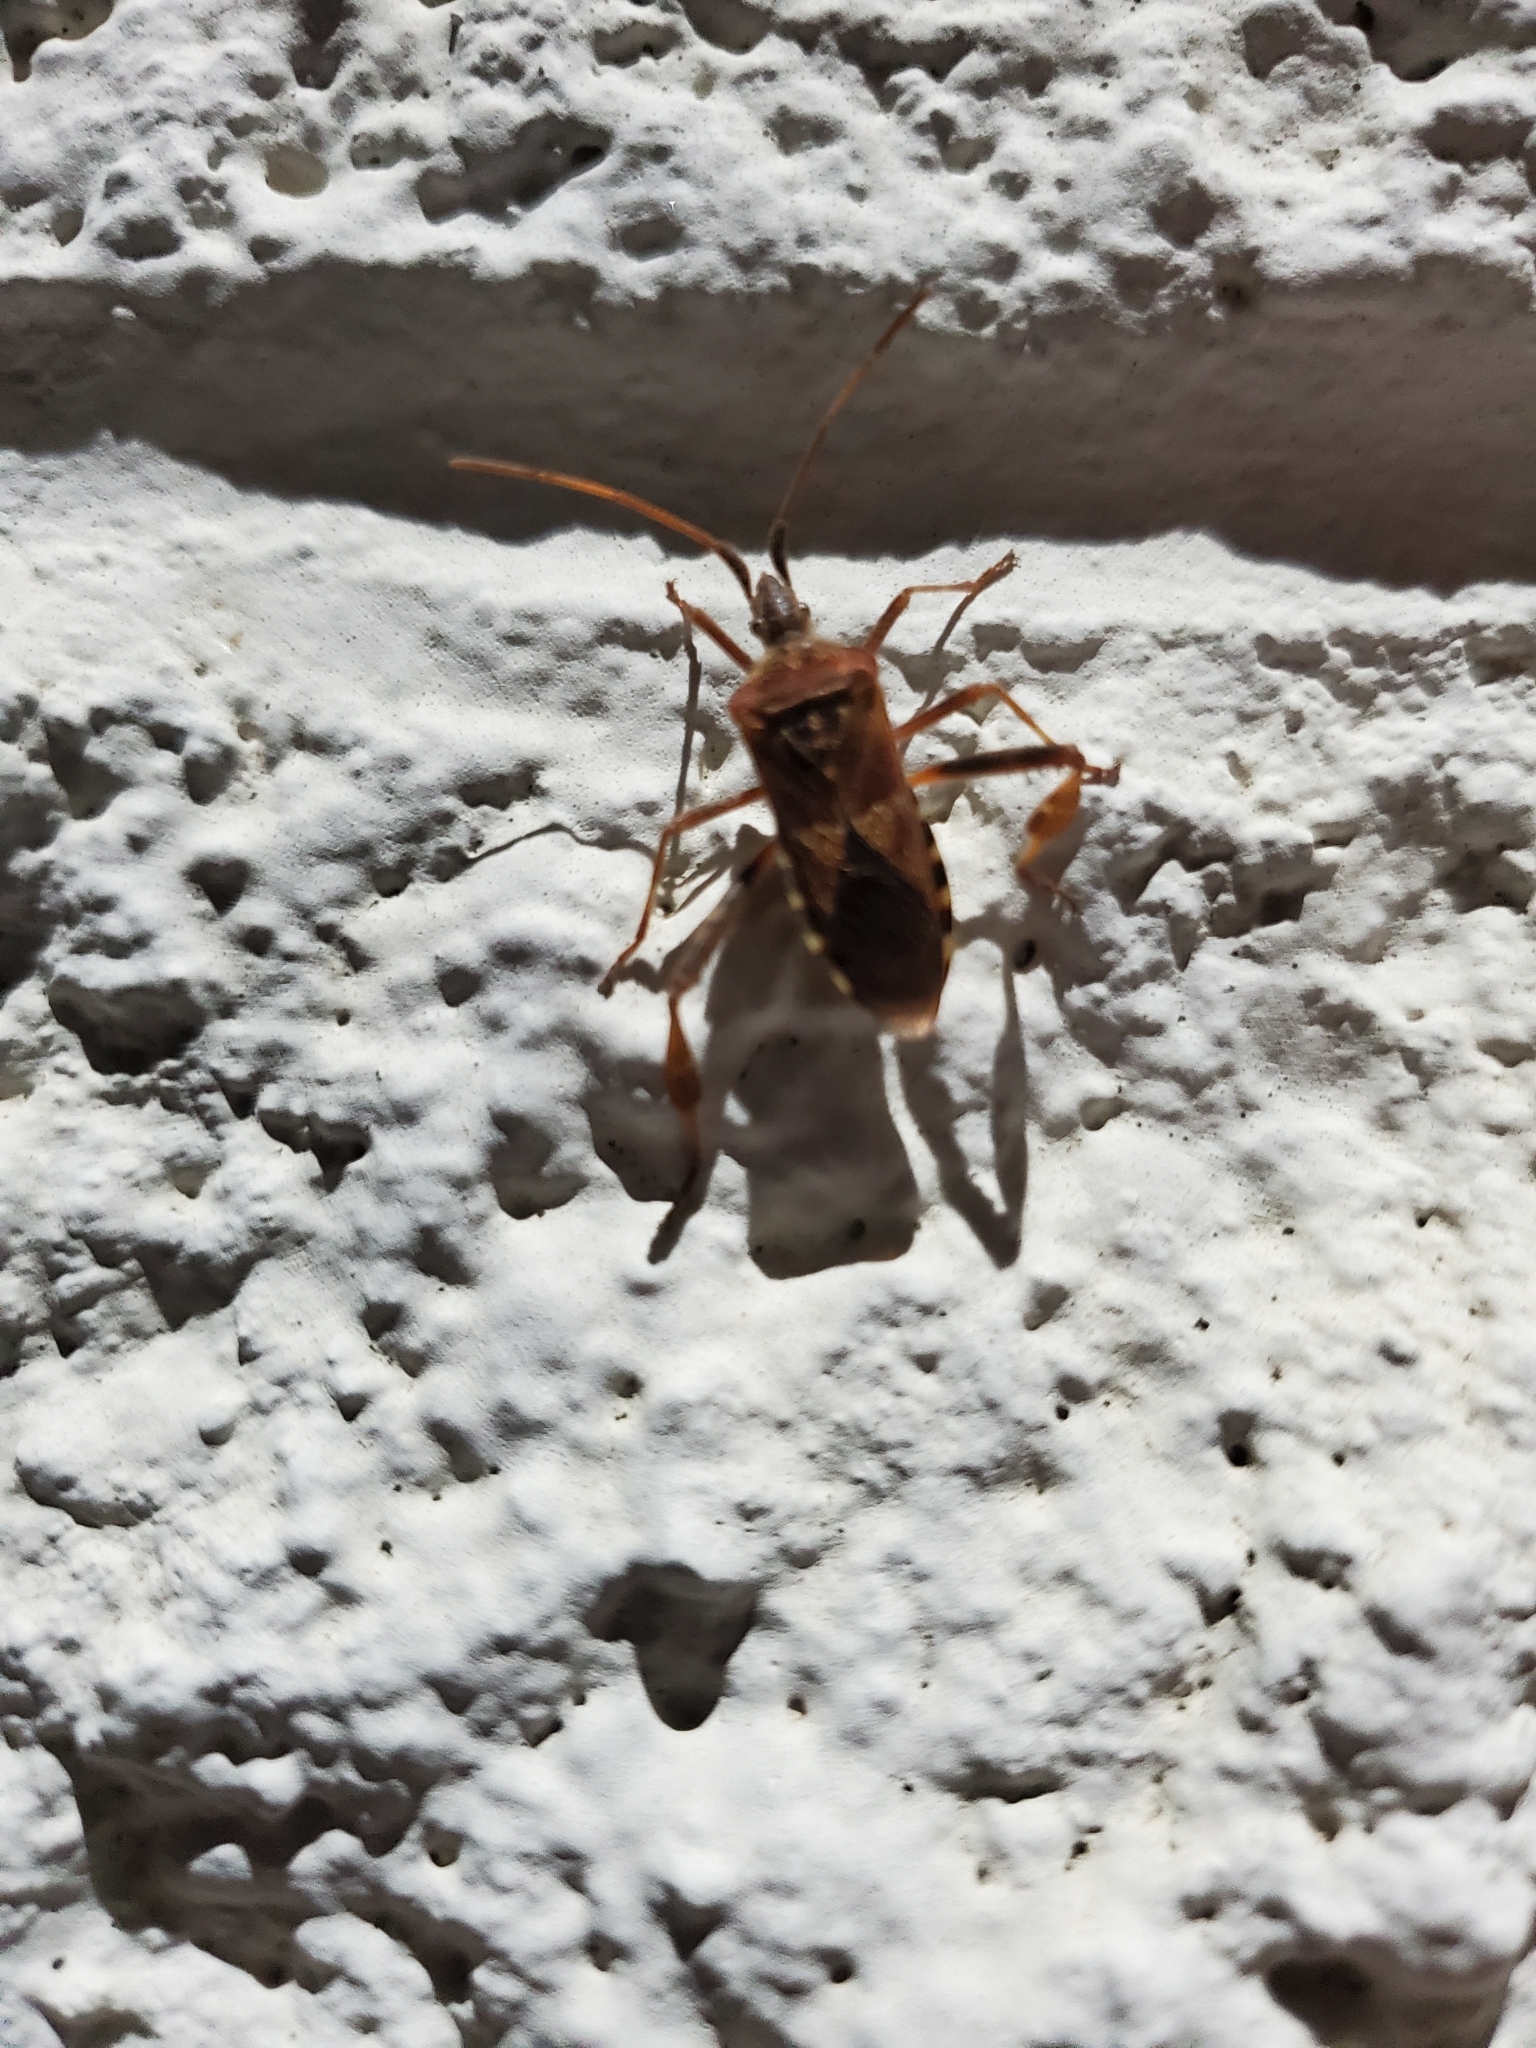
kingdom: Animalia
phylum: Arthropoda
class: Insecta
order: Hemiptera
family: Coreidae
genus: Leptoglossus
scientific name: Leptoglossus occidentalis
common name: Western conifer-seed bug
